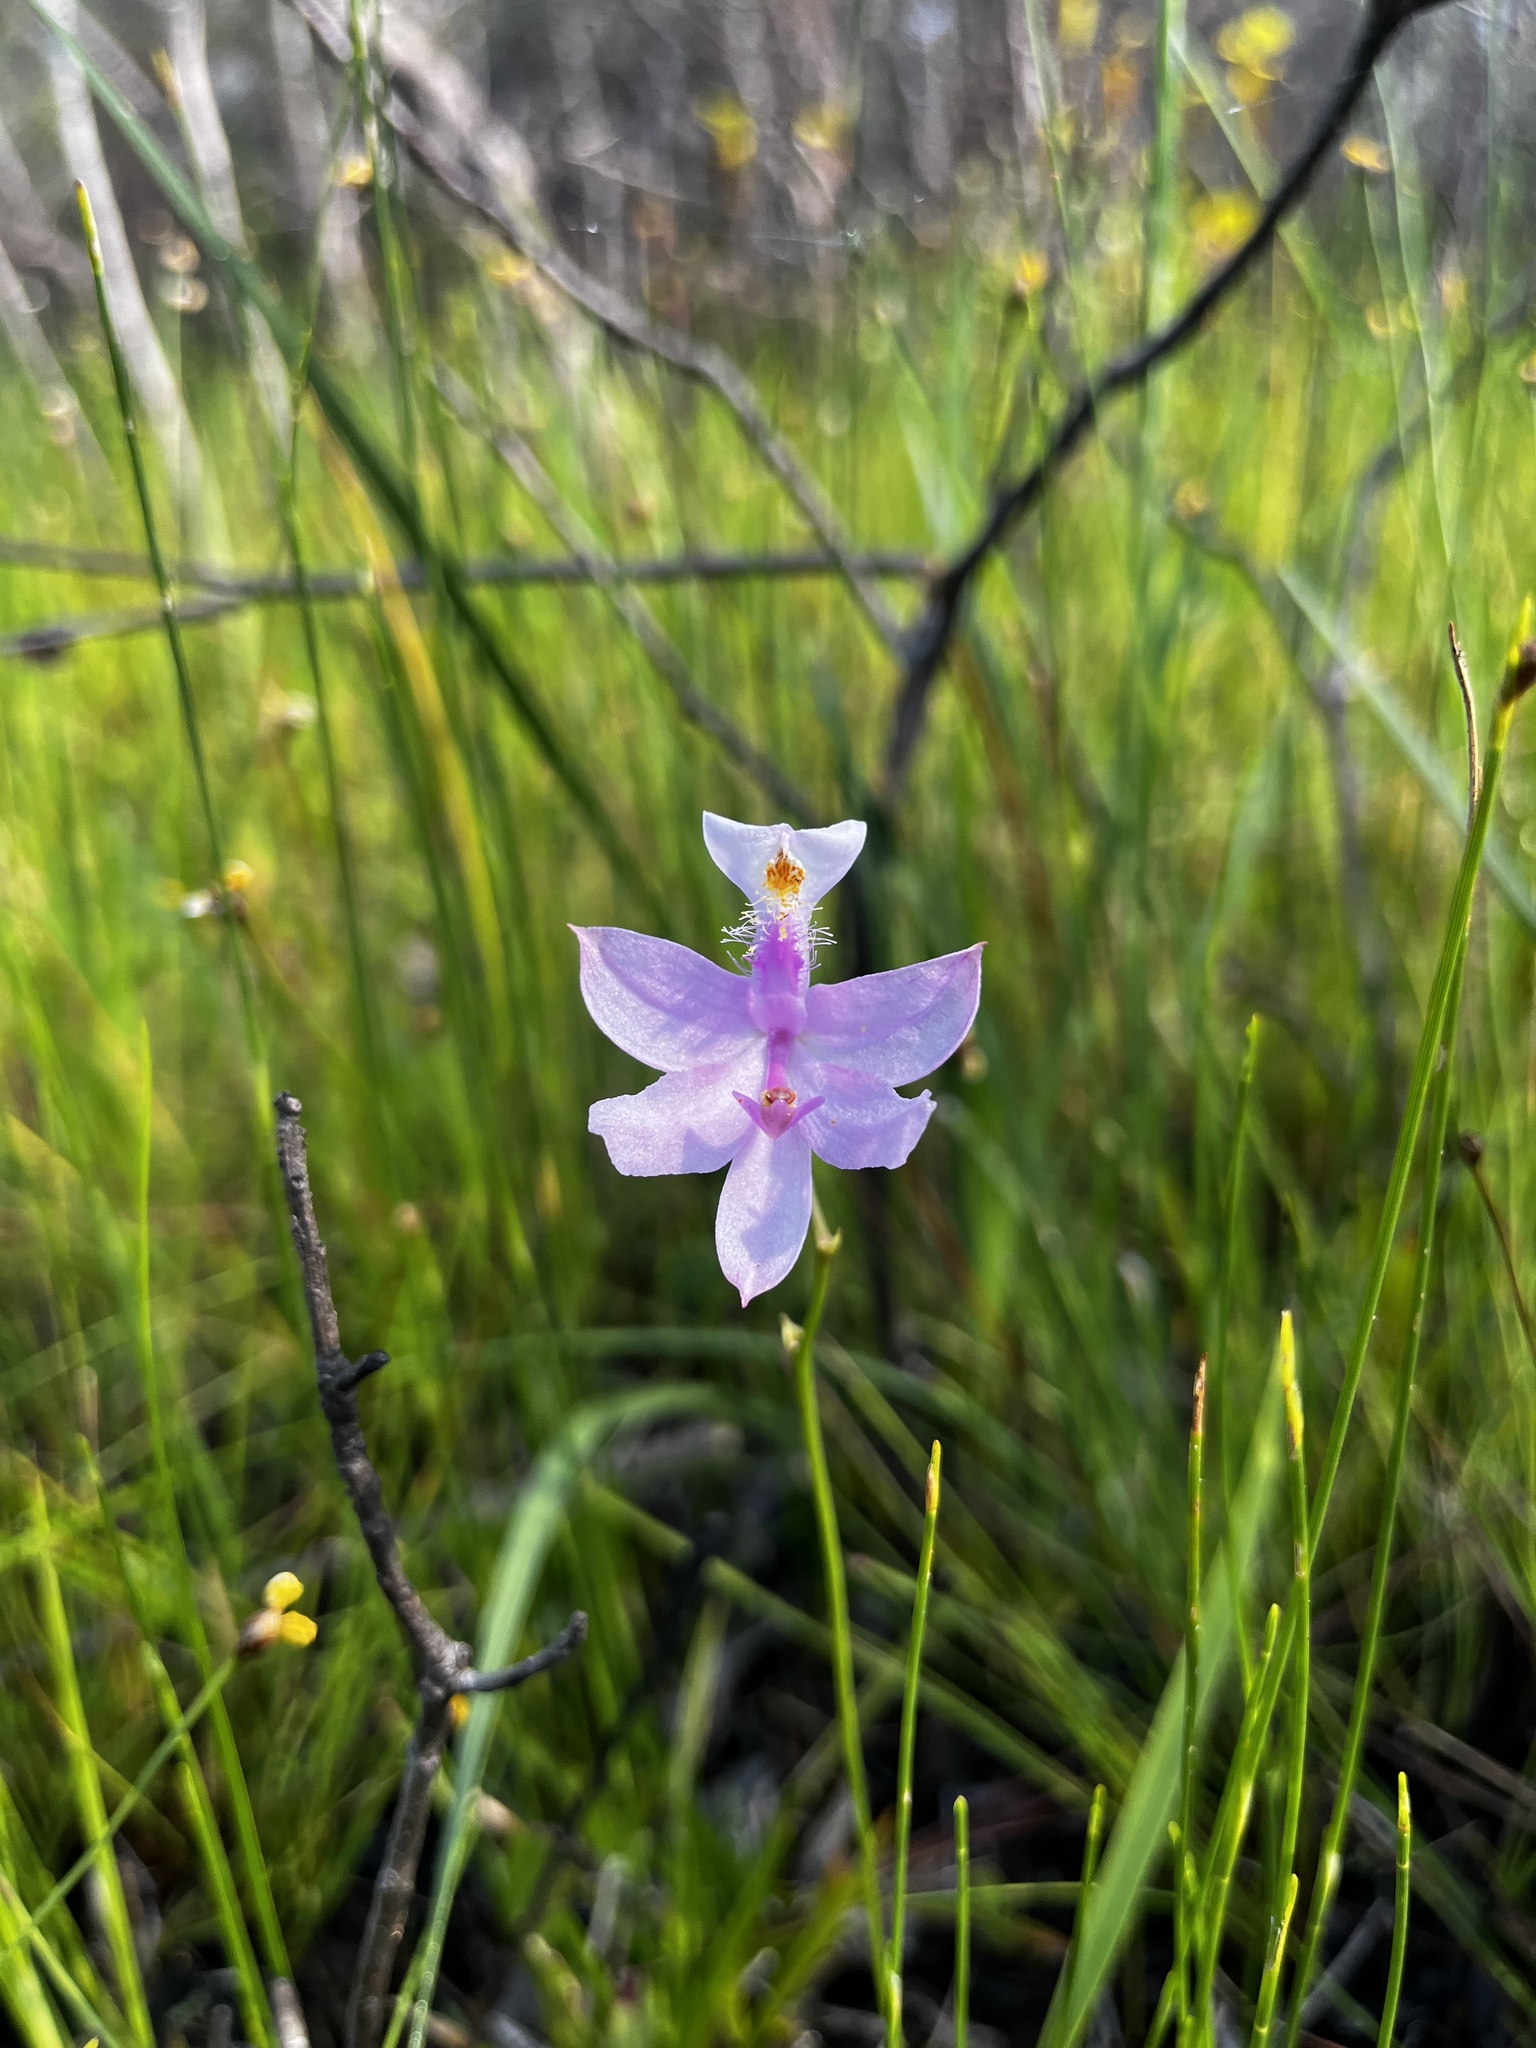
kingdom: Plantae
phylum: Tracheophyta
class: Liliopsida
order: Asparagales
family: Orchidaceae
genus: Calopogon
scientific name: Calopogon tuberosus
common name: Grass-pink
